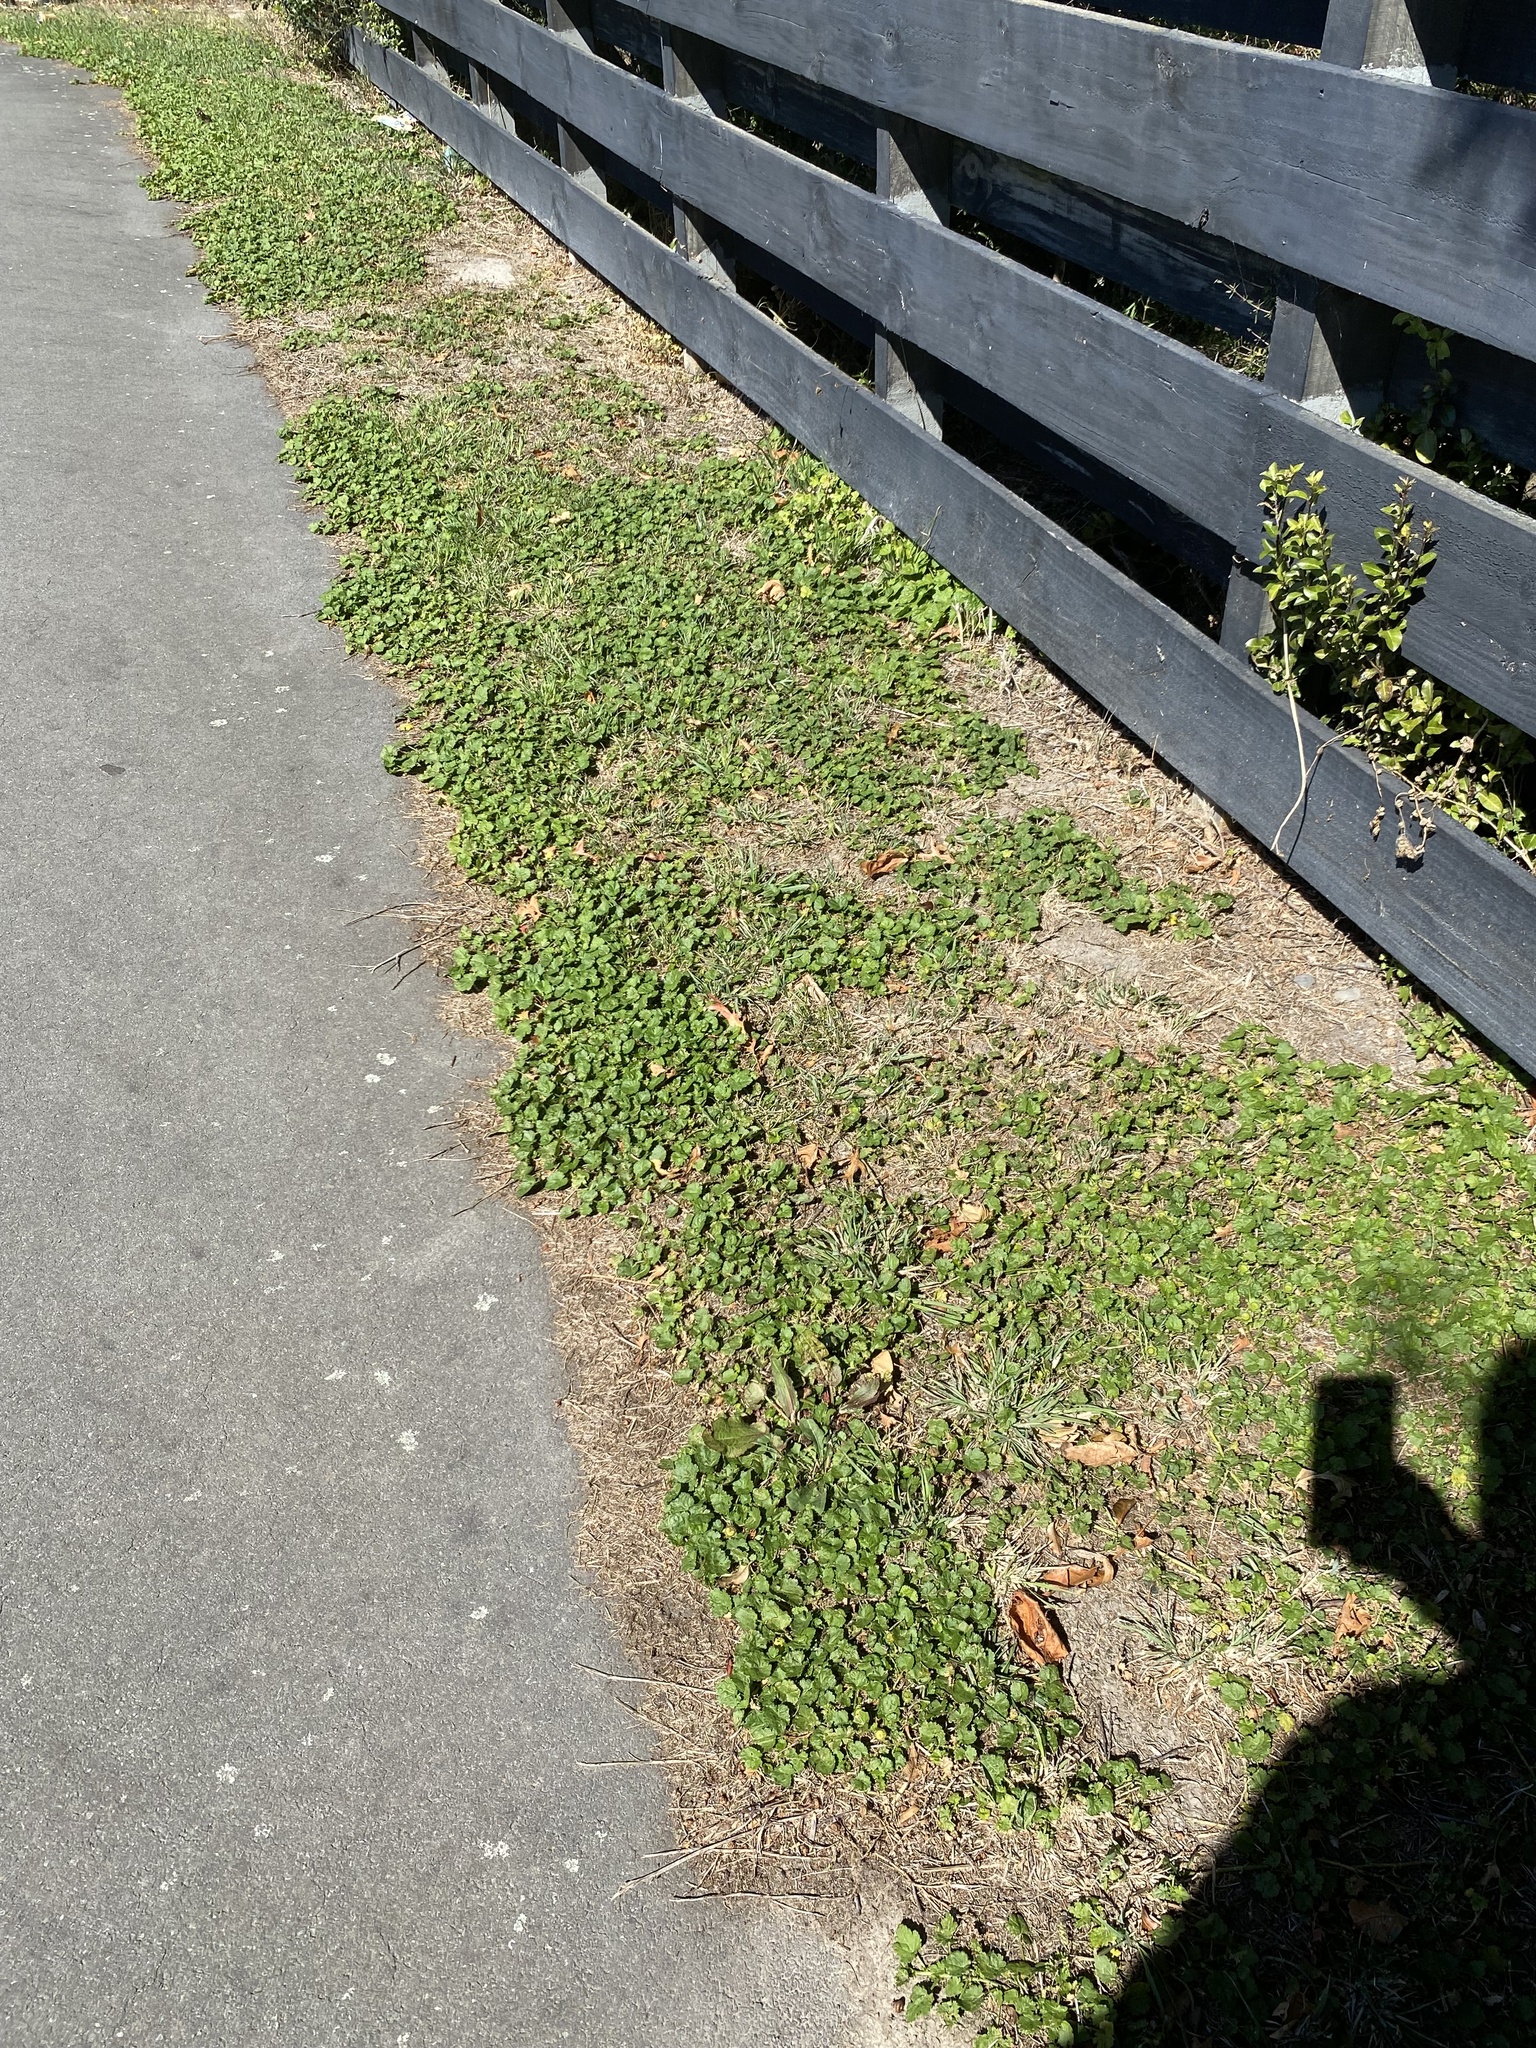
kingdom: Plantae
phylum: Tracheophyta
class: Magnoliopsida
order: Malvales
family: Malvaceae
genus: Modiola
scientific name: Modiola caroliniana
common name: Carolina bristlemallow
